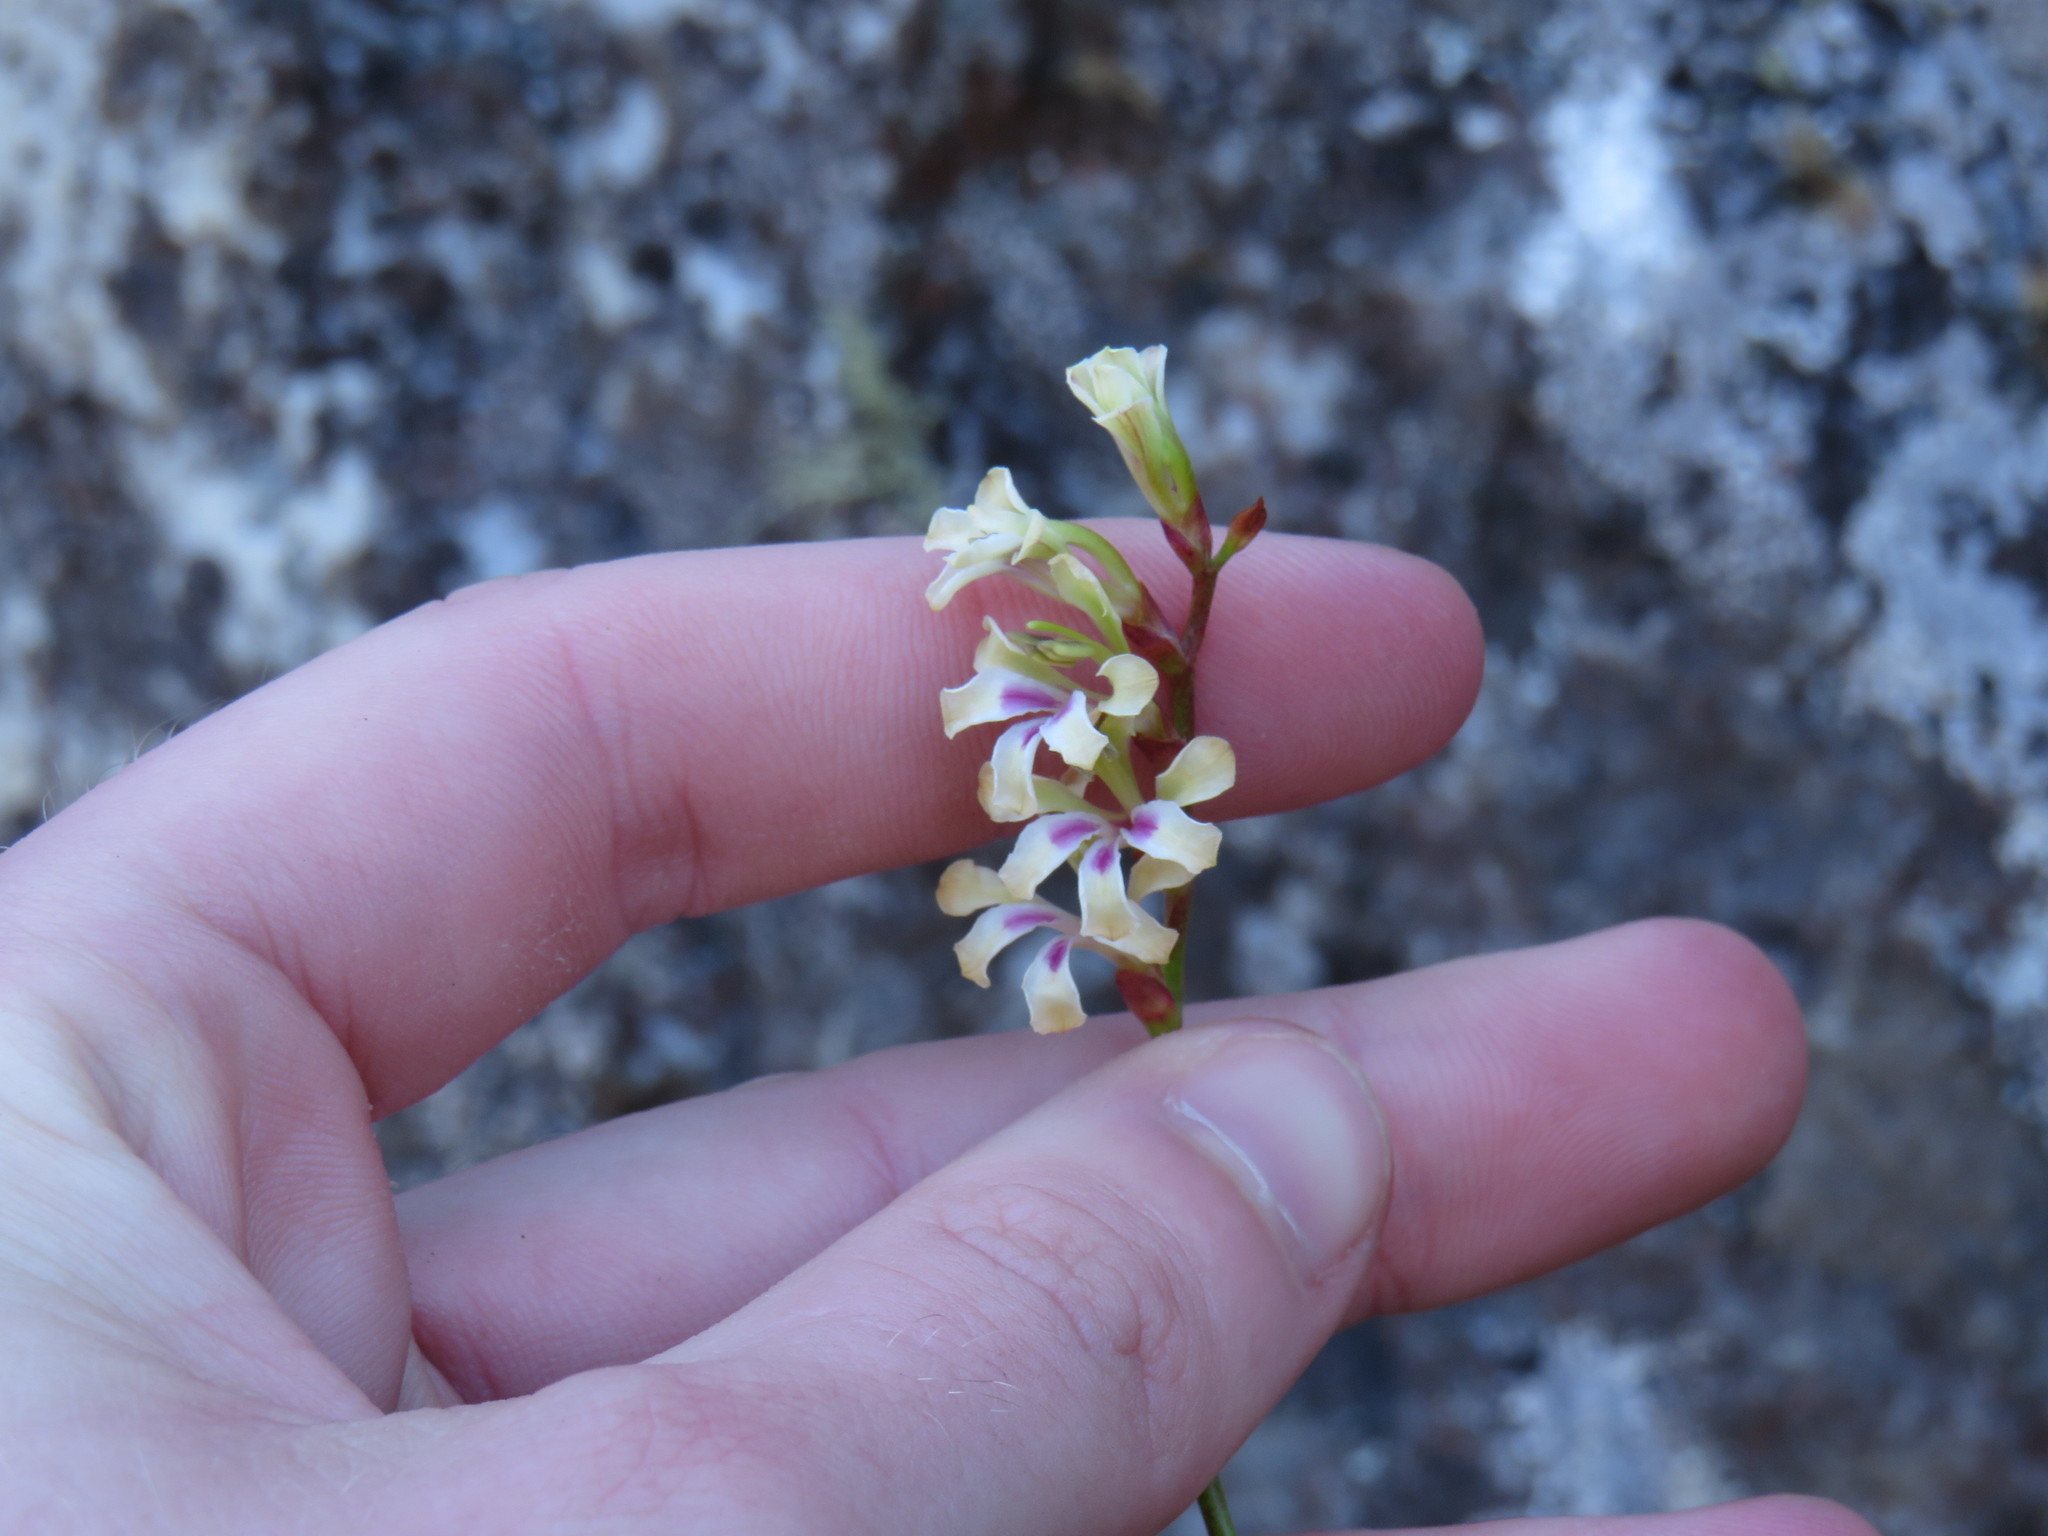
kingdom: Plantae
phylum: Tracheophyta
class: Liliopsida
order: Asparagales
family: Iridaceae
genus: Tritoniopsis
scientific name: Tritoniopsis unguicularis
